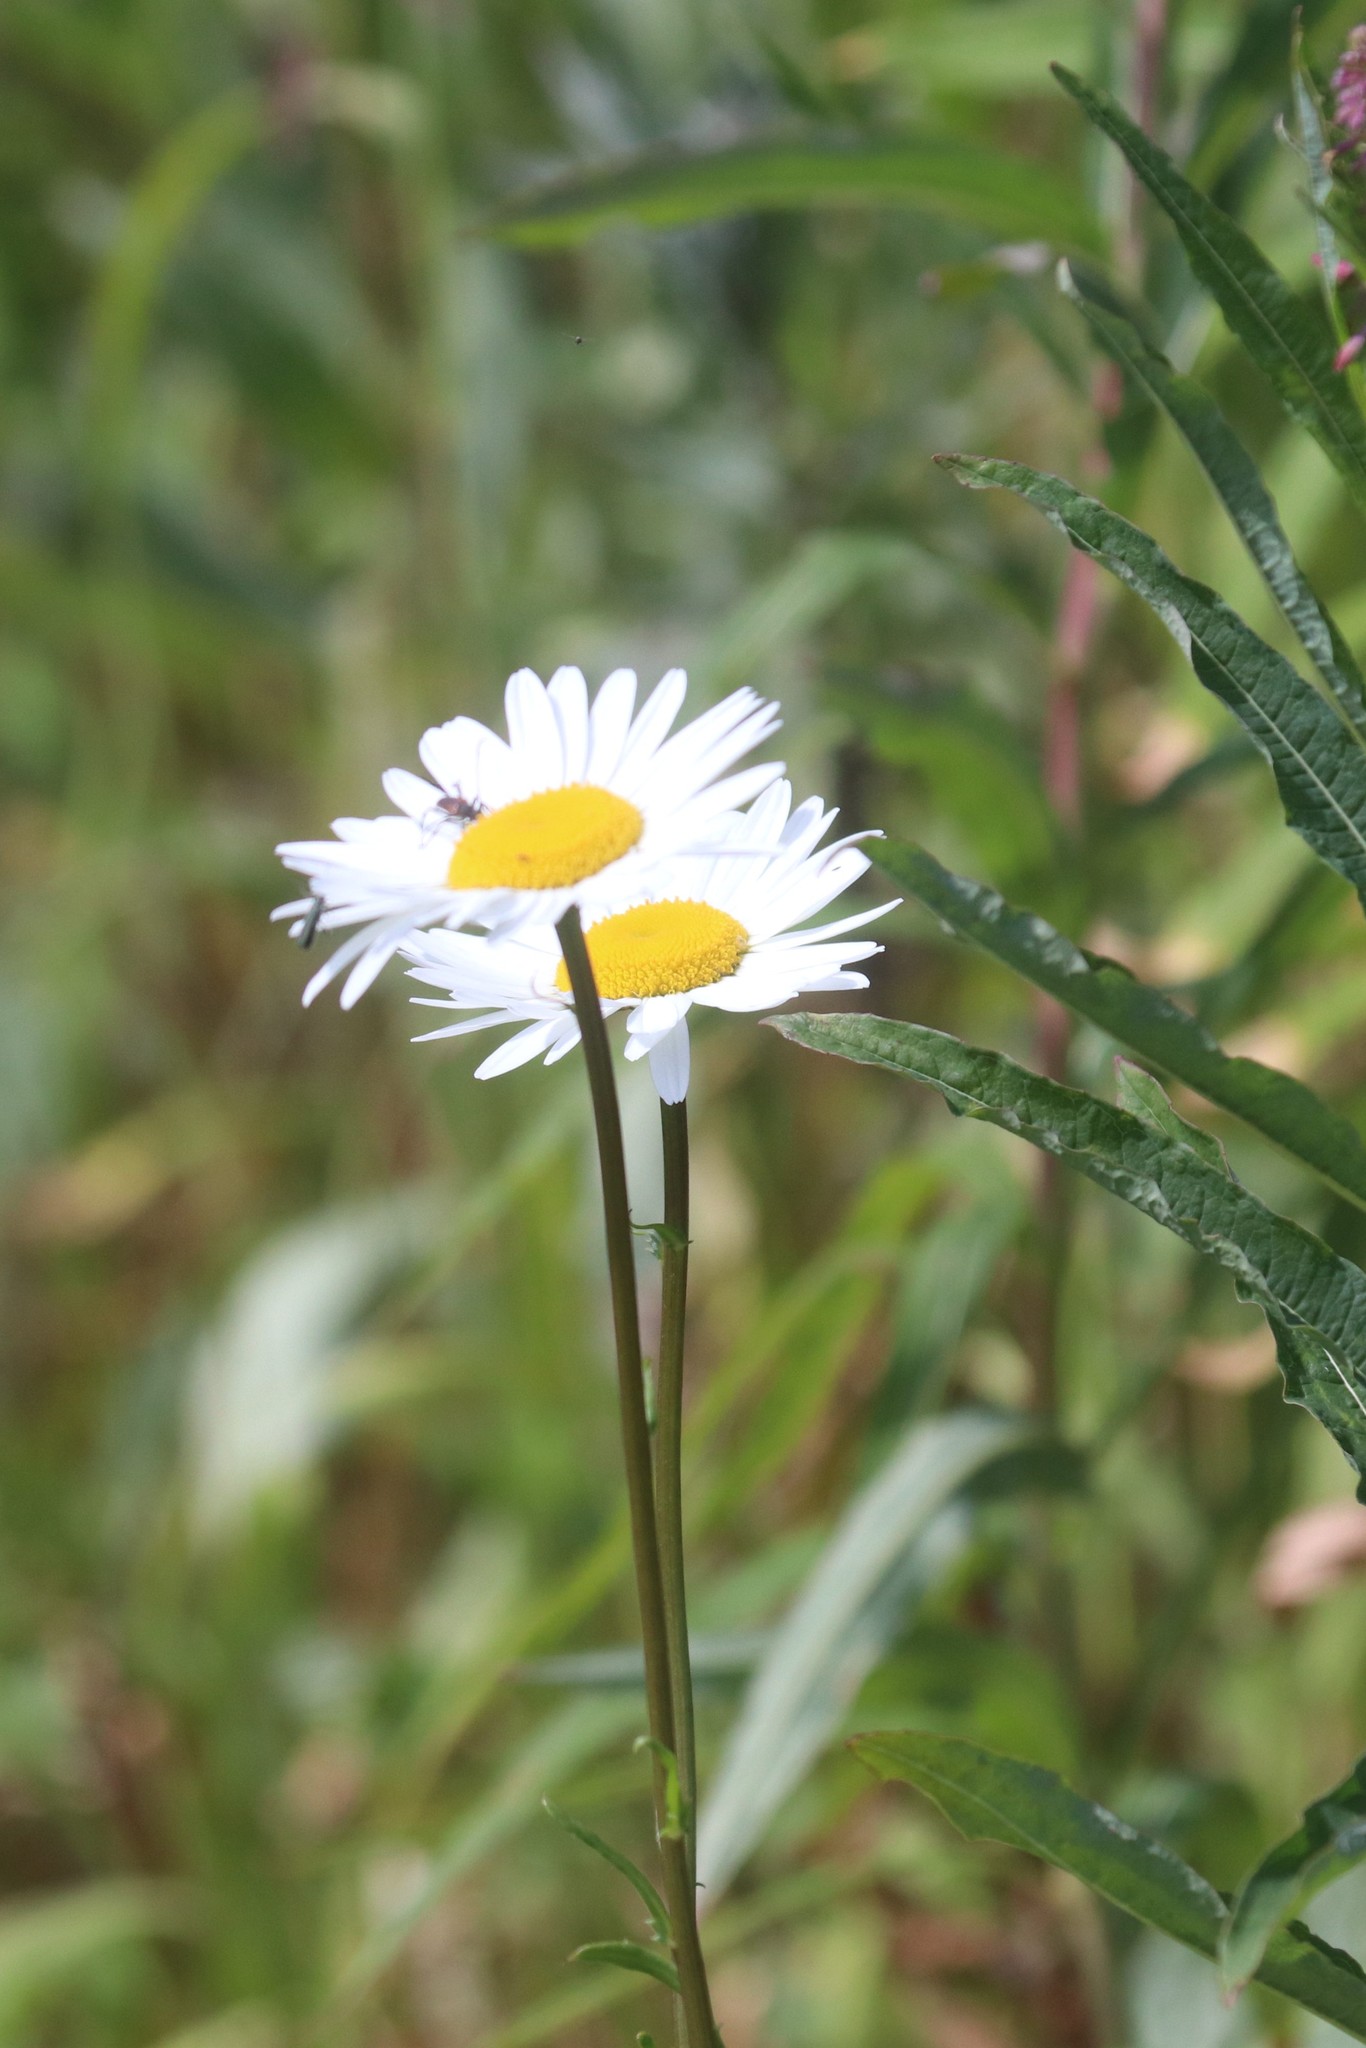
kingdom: Plantae
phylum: Tracheophyta
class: Magnoliopsida
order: Asterales
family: Asteraceae
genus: Leucanthemum
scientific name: Leucanthemum vulgare
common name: Oxeye daisy
